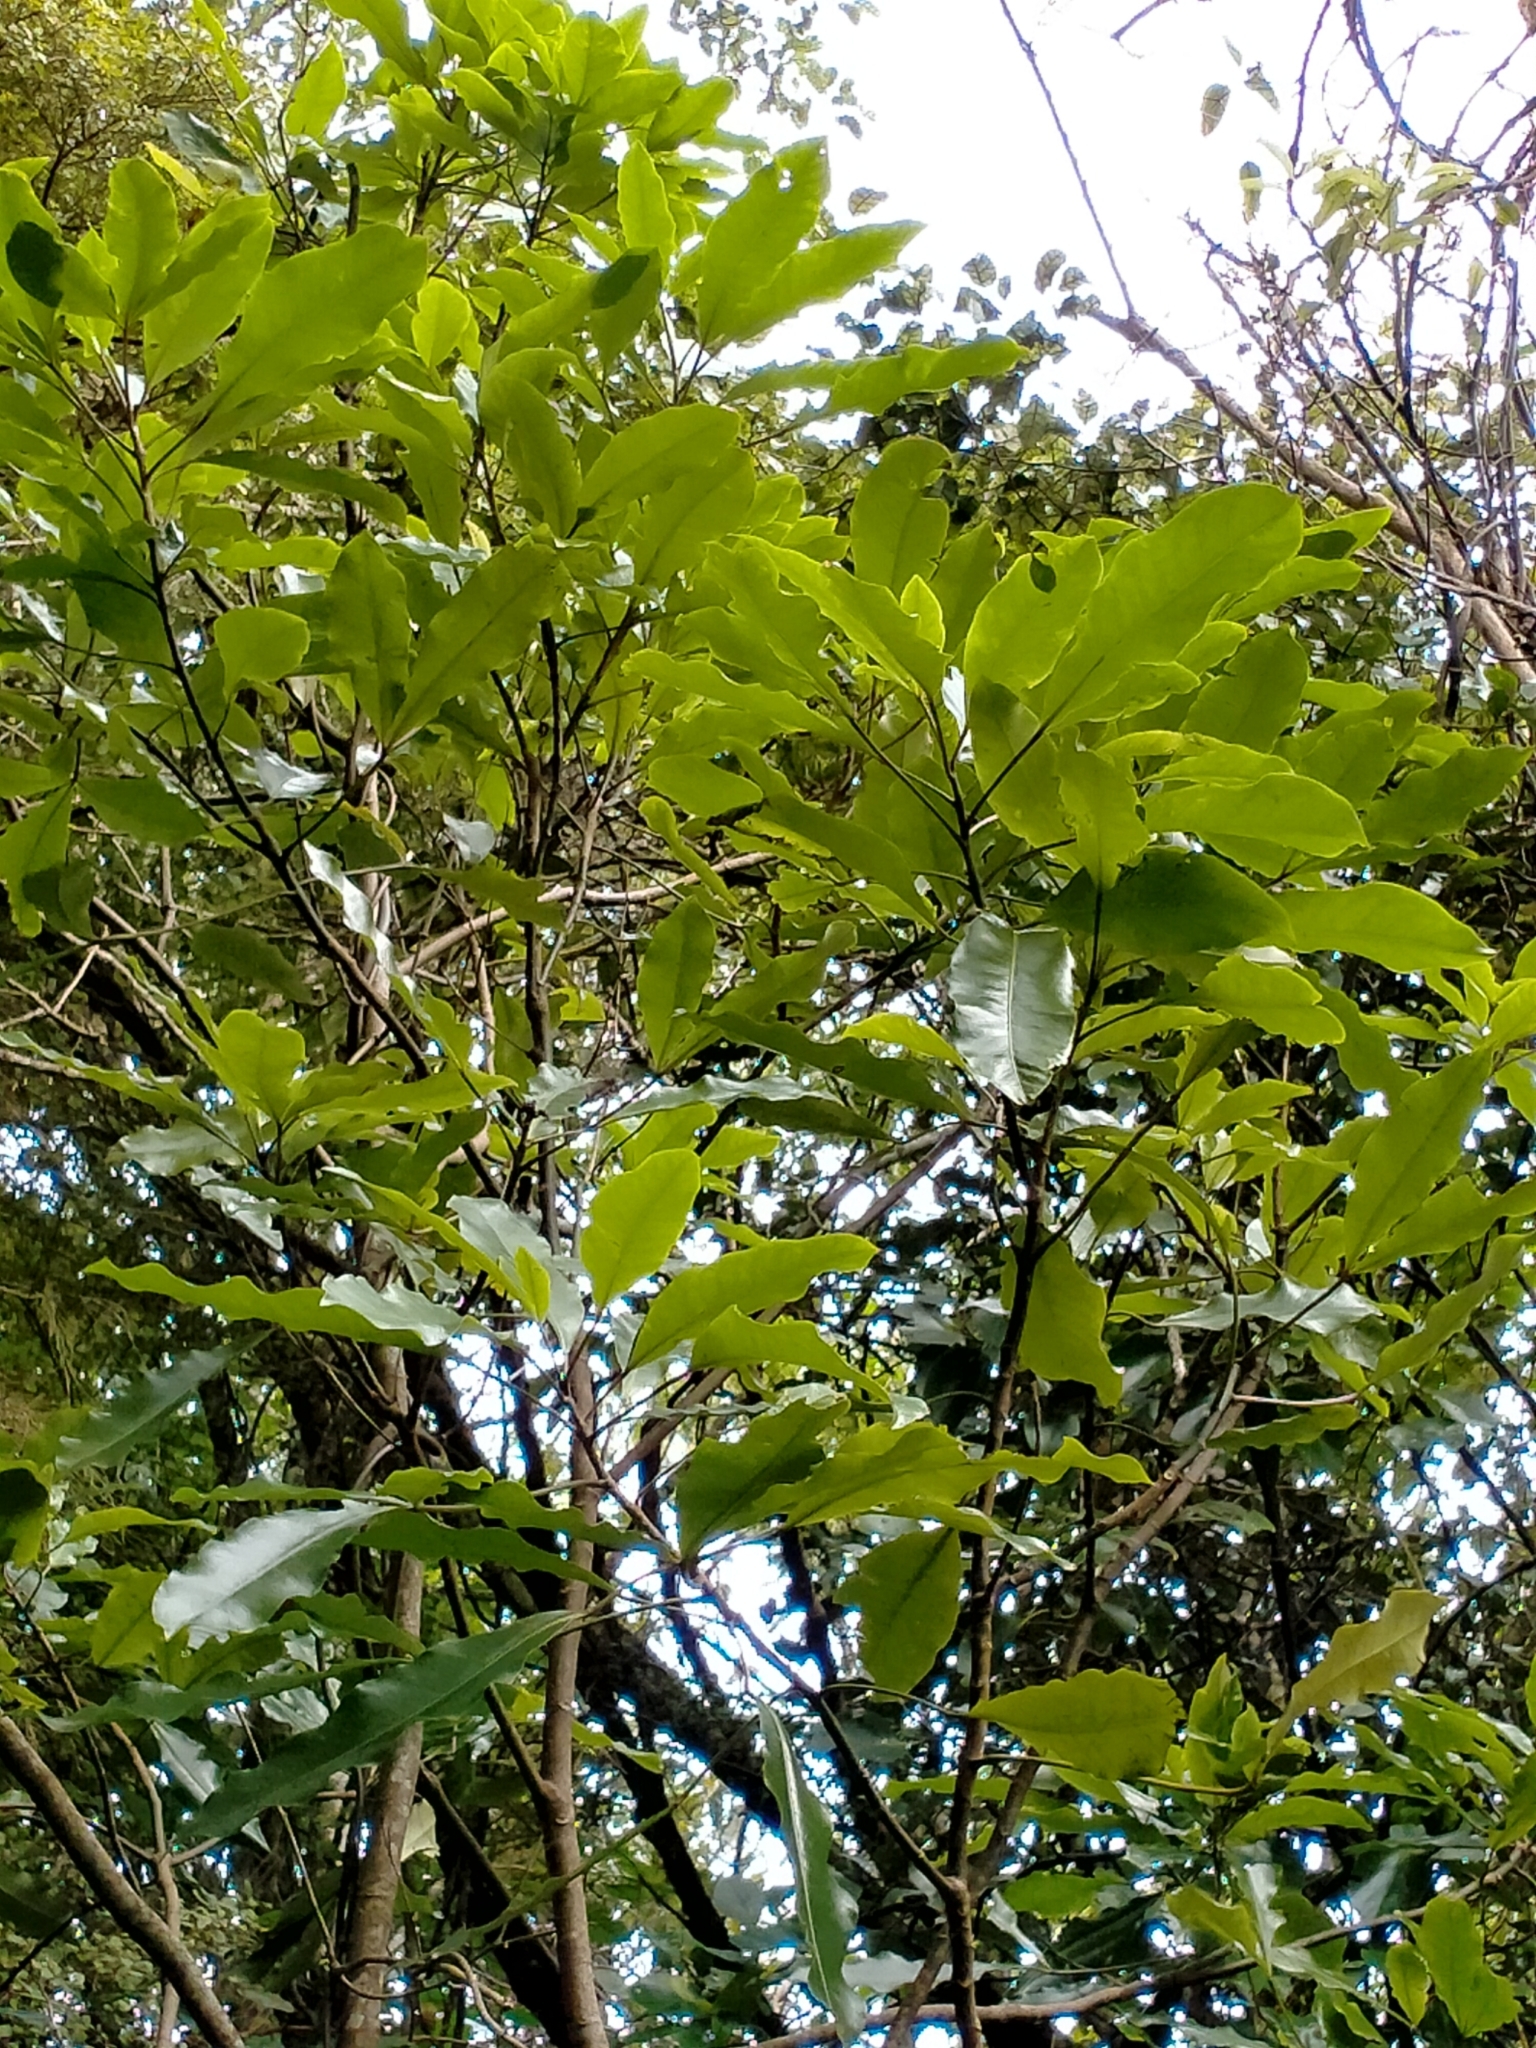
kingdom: Plantae
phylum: Tracheophyta
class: Magnoliopsida
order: Apiales
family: Araliaceae
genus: Raukaua
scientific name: Raukaua edgerleyi
